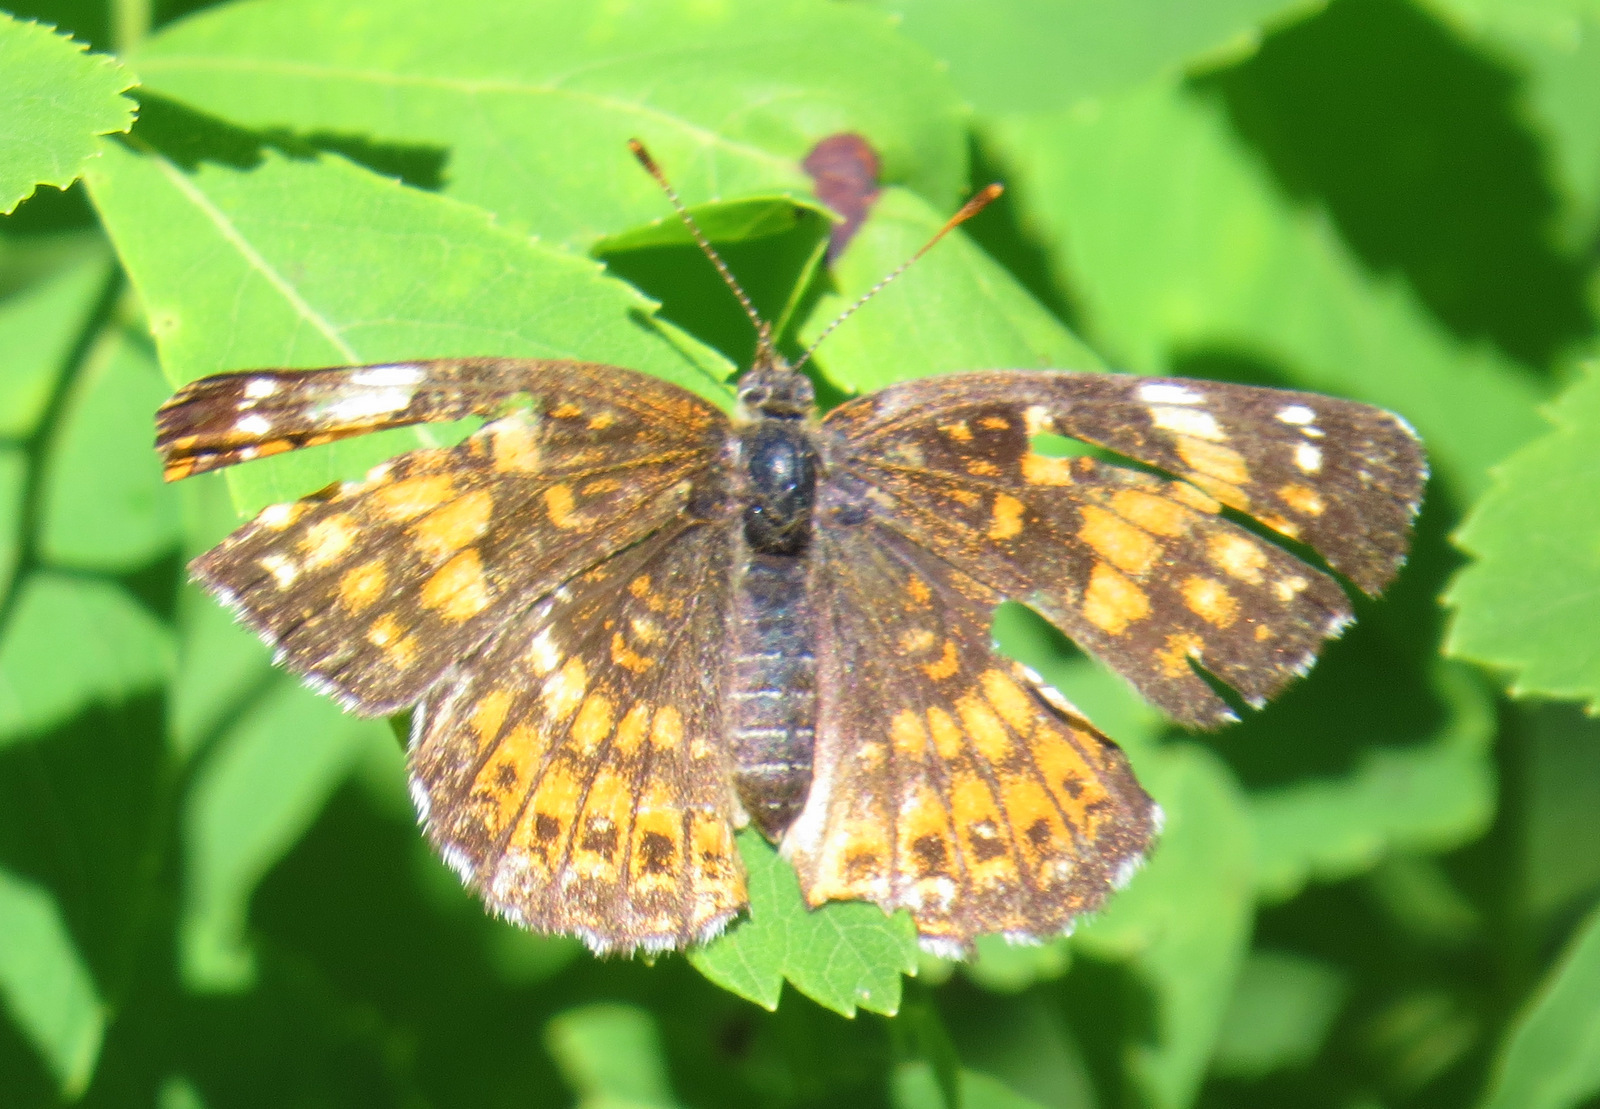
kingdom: Animalia
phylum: Arthropoda
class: Insecta
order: Lepidoptera
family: Nymphalidae
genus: Chlosyne
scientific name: Chlosyne harrisii
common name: Harris's checkerspot
